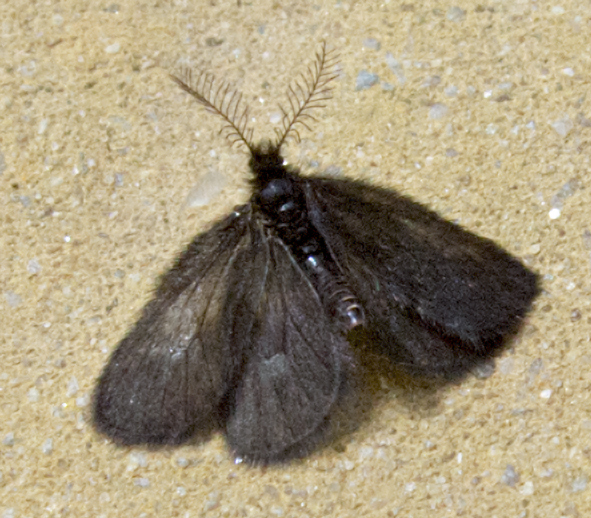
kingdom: Animalia
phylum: Arthropoda
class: Insecta
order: Lepidoptera
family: Psychidae
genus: Epichnopterix
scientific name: Epichnopterix plumella
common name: Round-winged sweep
